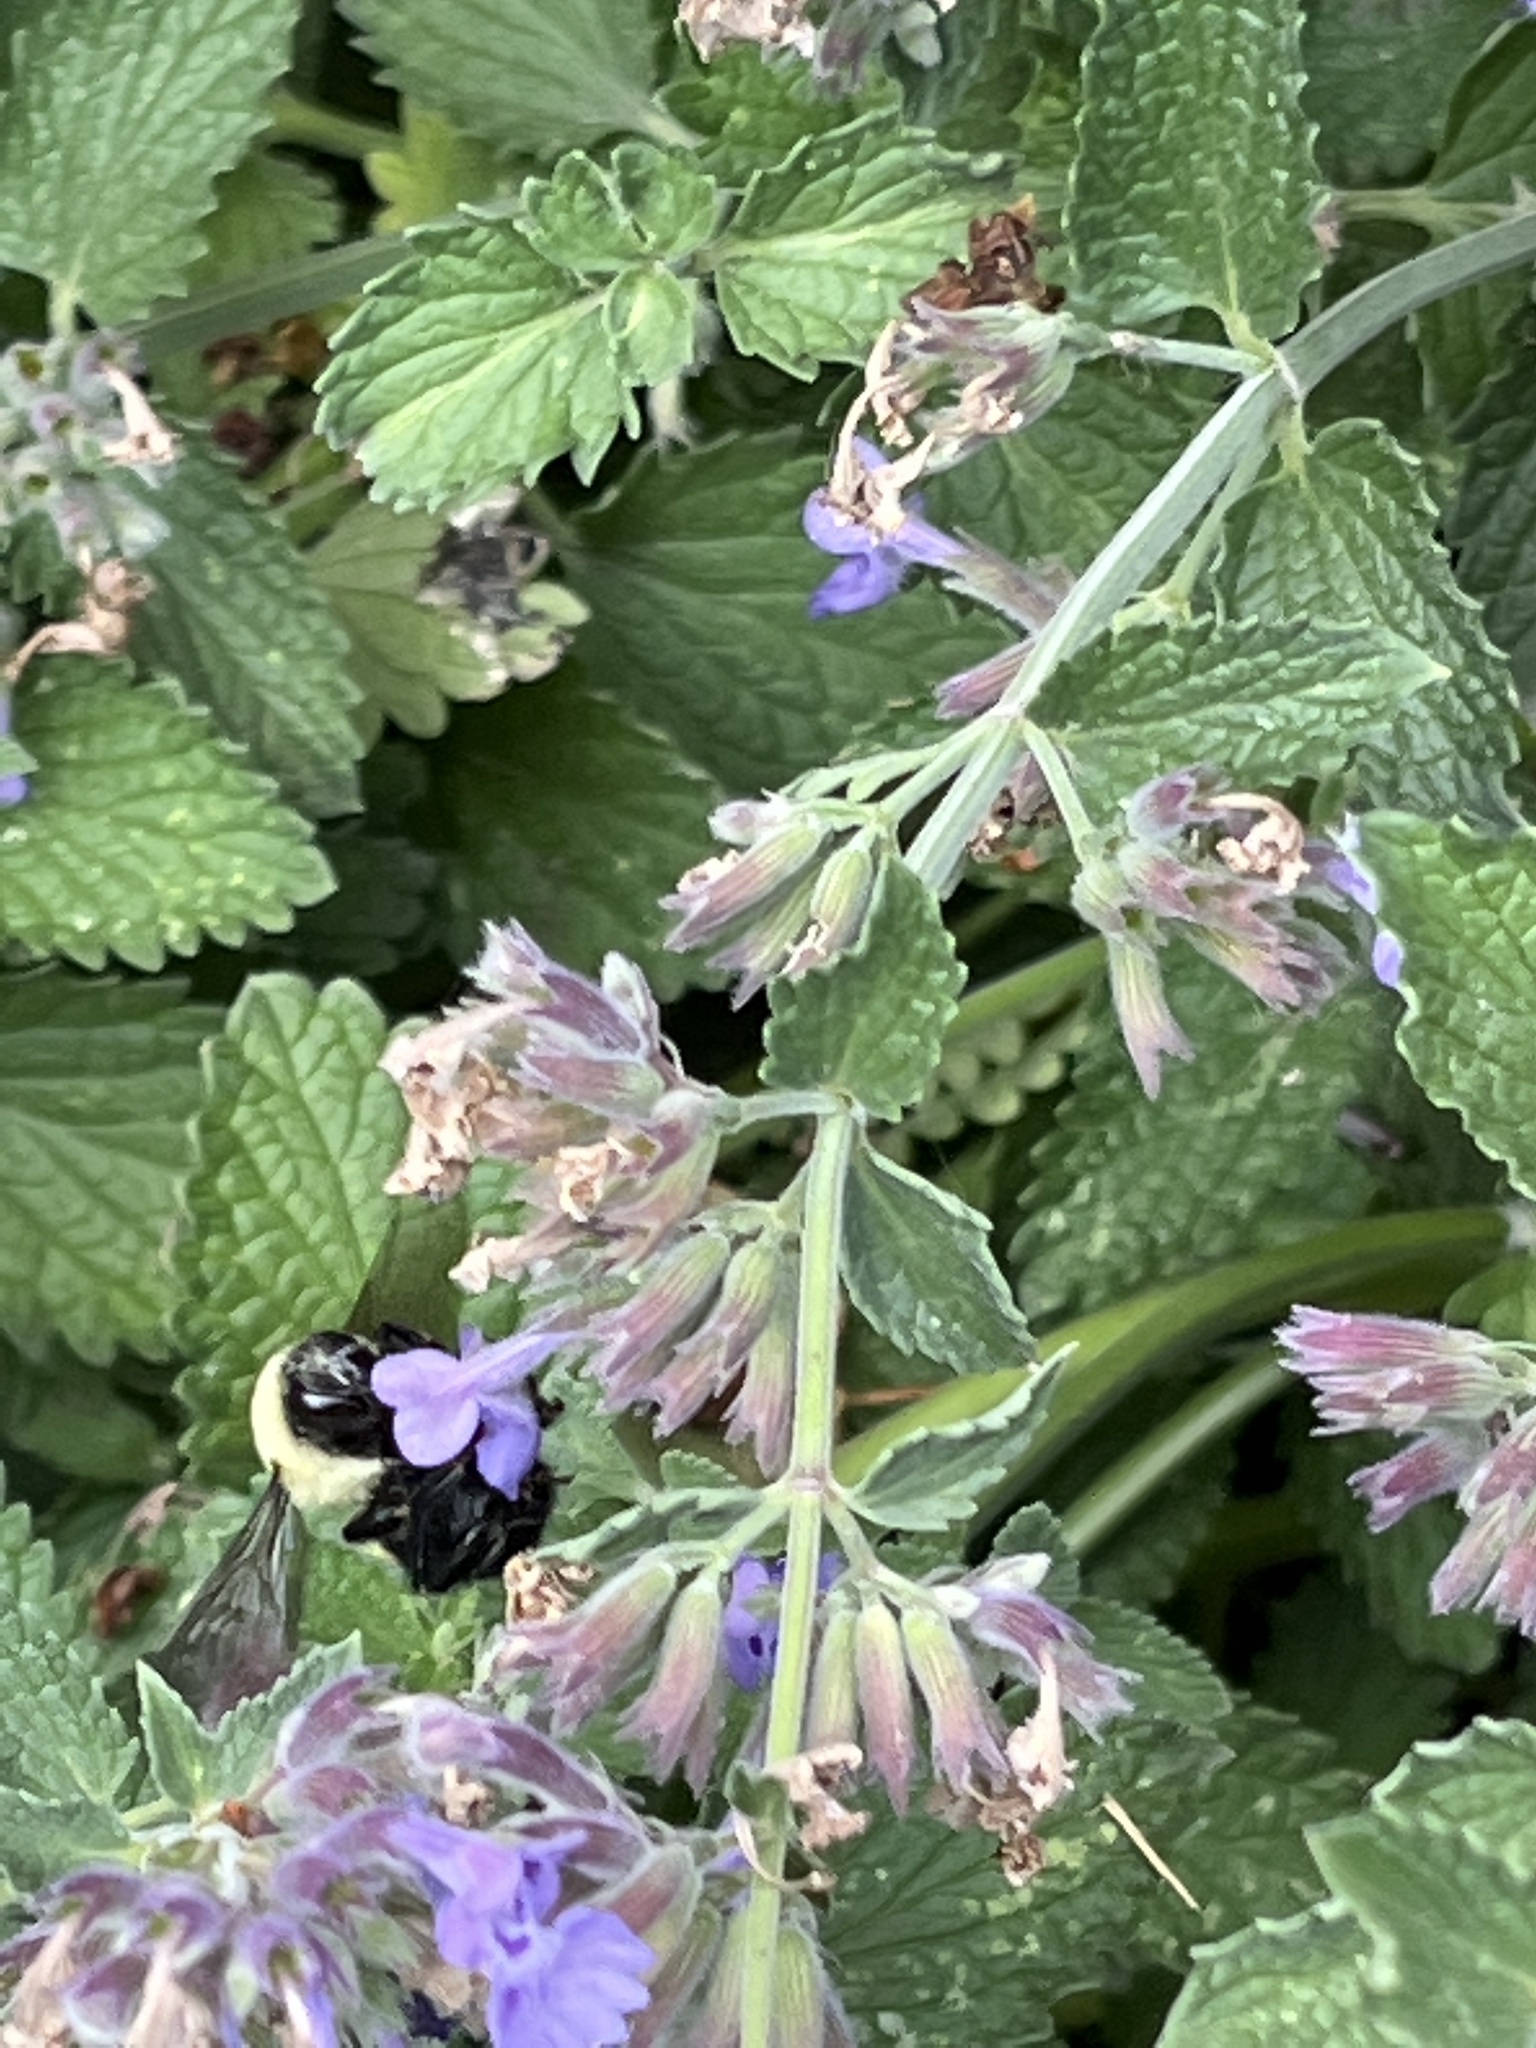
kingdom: Animalia
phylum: Arthropoda
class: Insecta
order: Hymenoptera
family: Apidae
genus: Bombus
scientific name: Bombus
